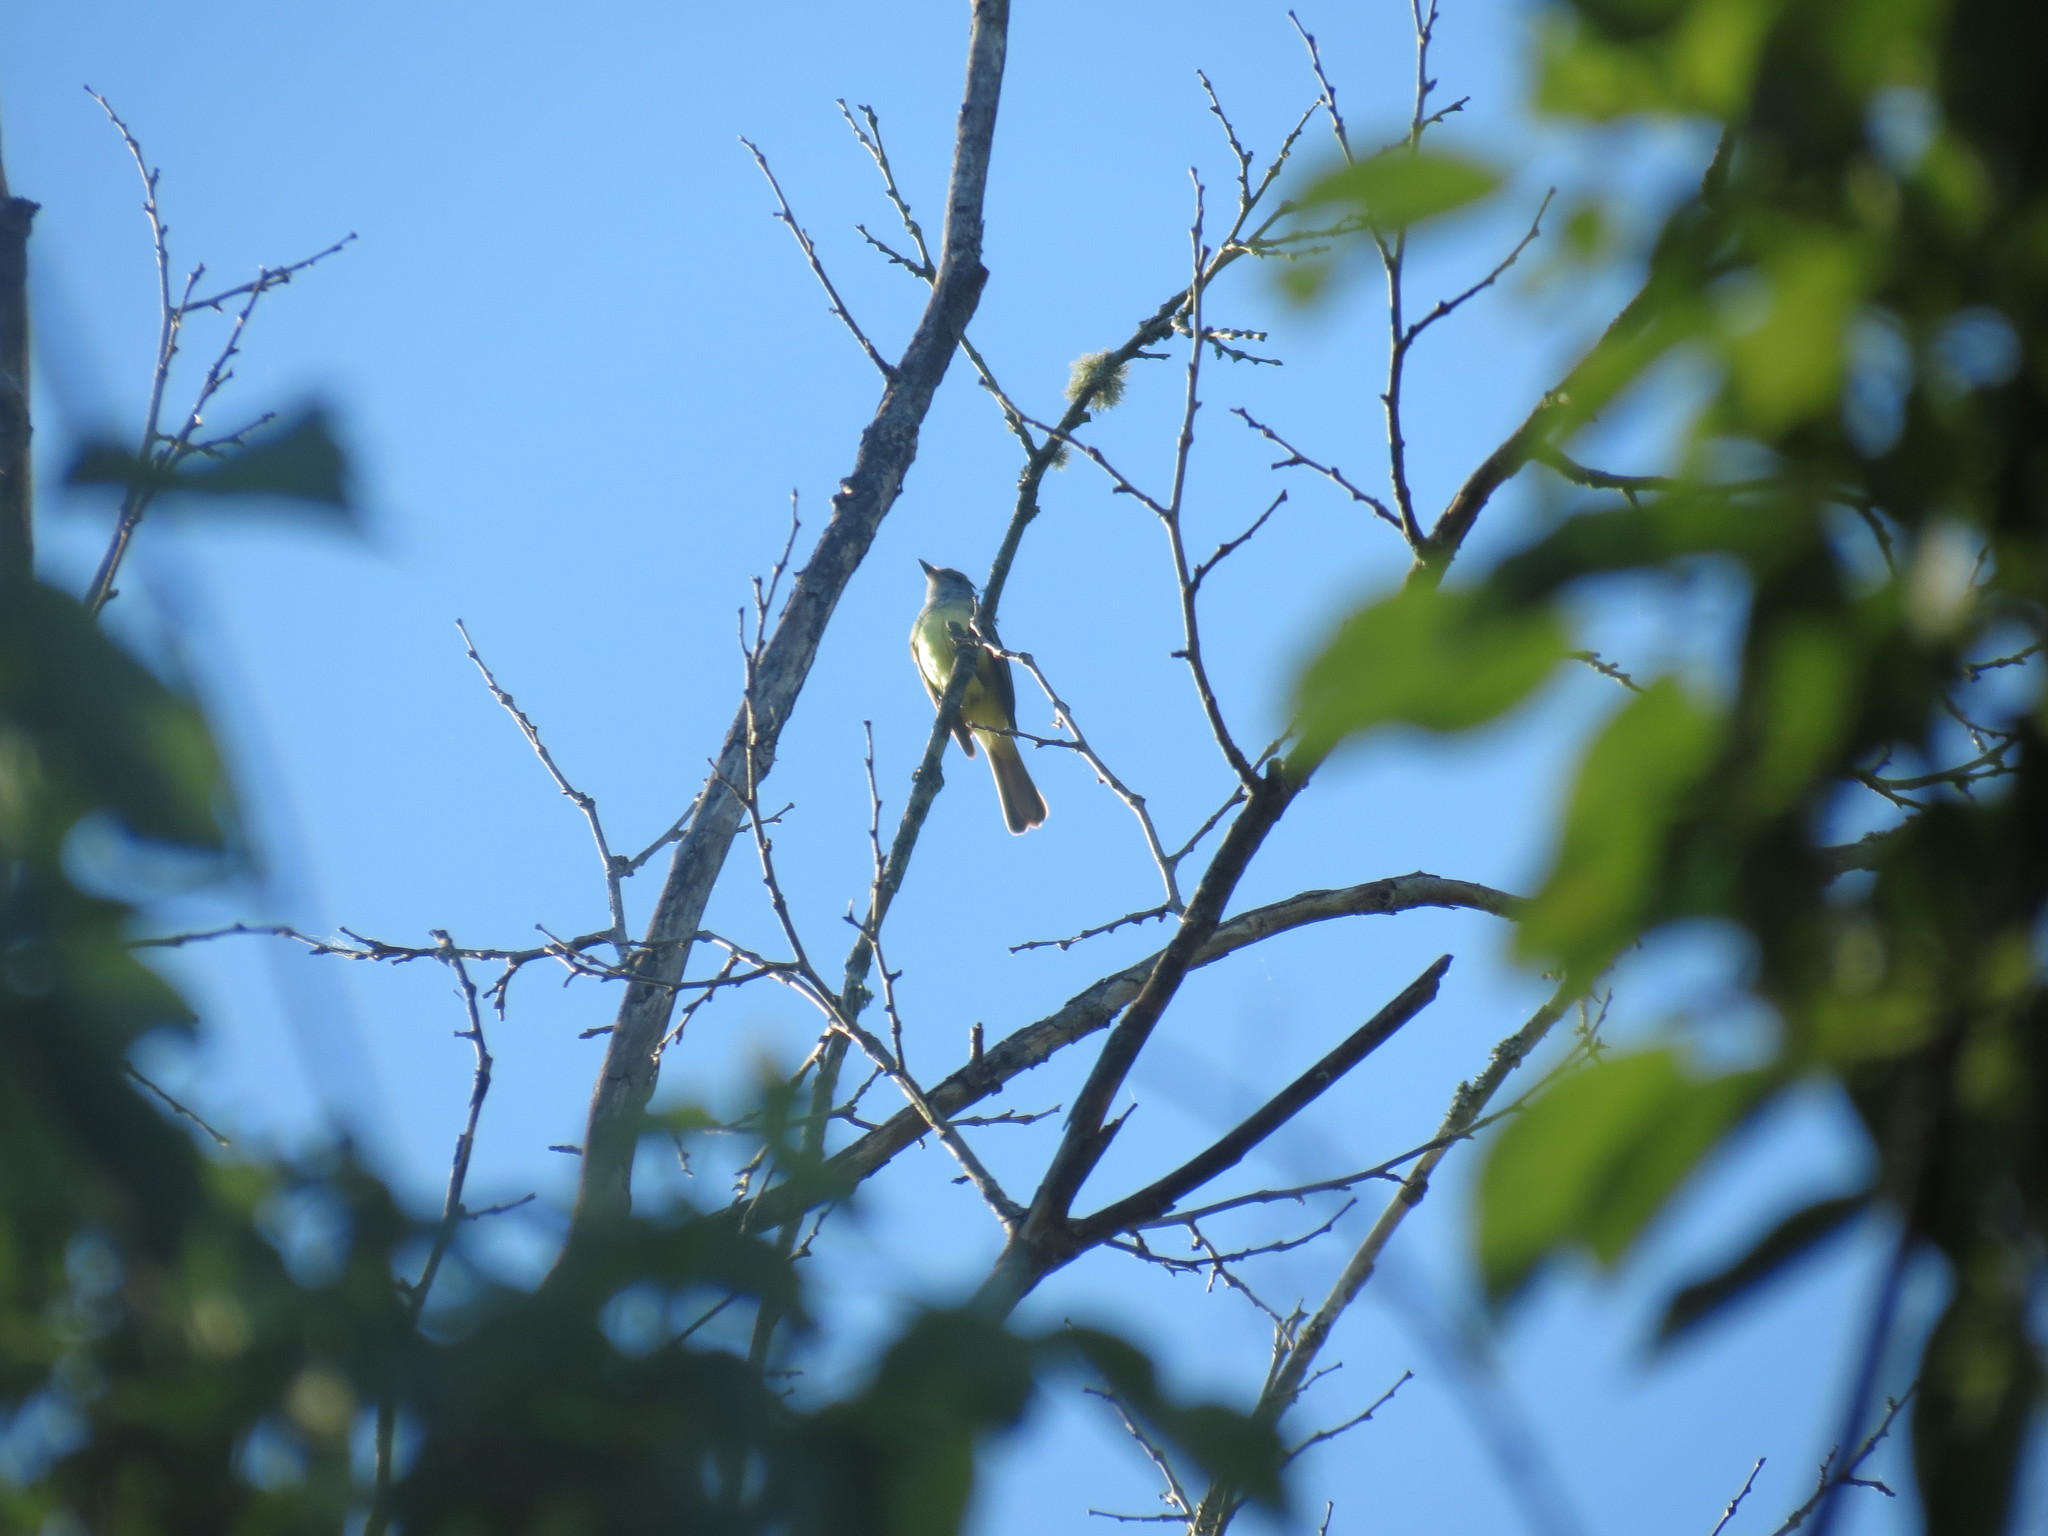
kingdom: Animalia
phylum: Chordata
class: Aves
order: Passeriformes
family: Tyrannidae
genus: Myiarchus
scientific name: Myiarchus crinitus
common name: Great crested flycatcher
